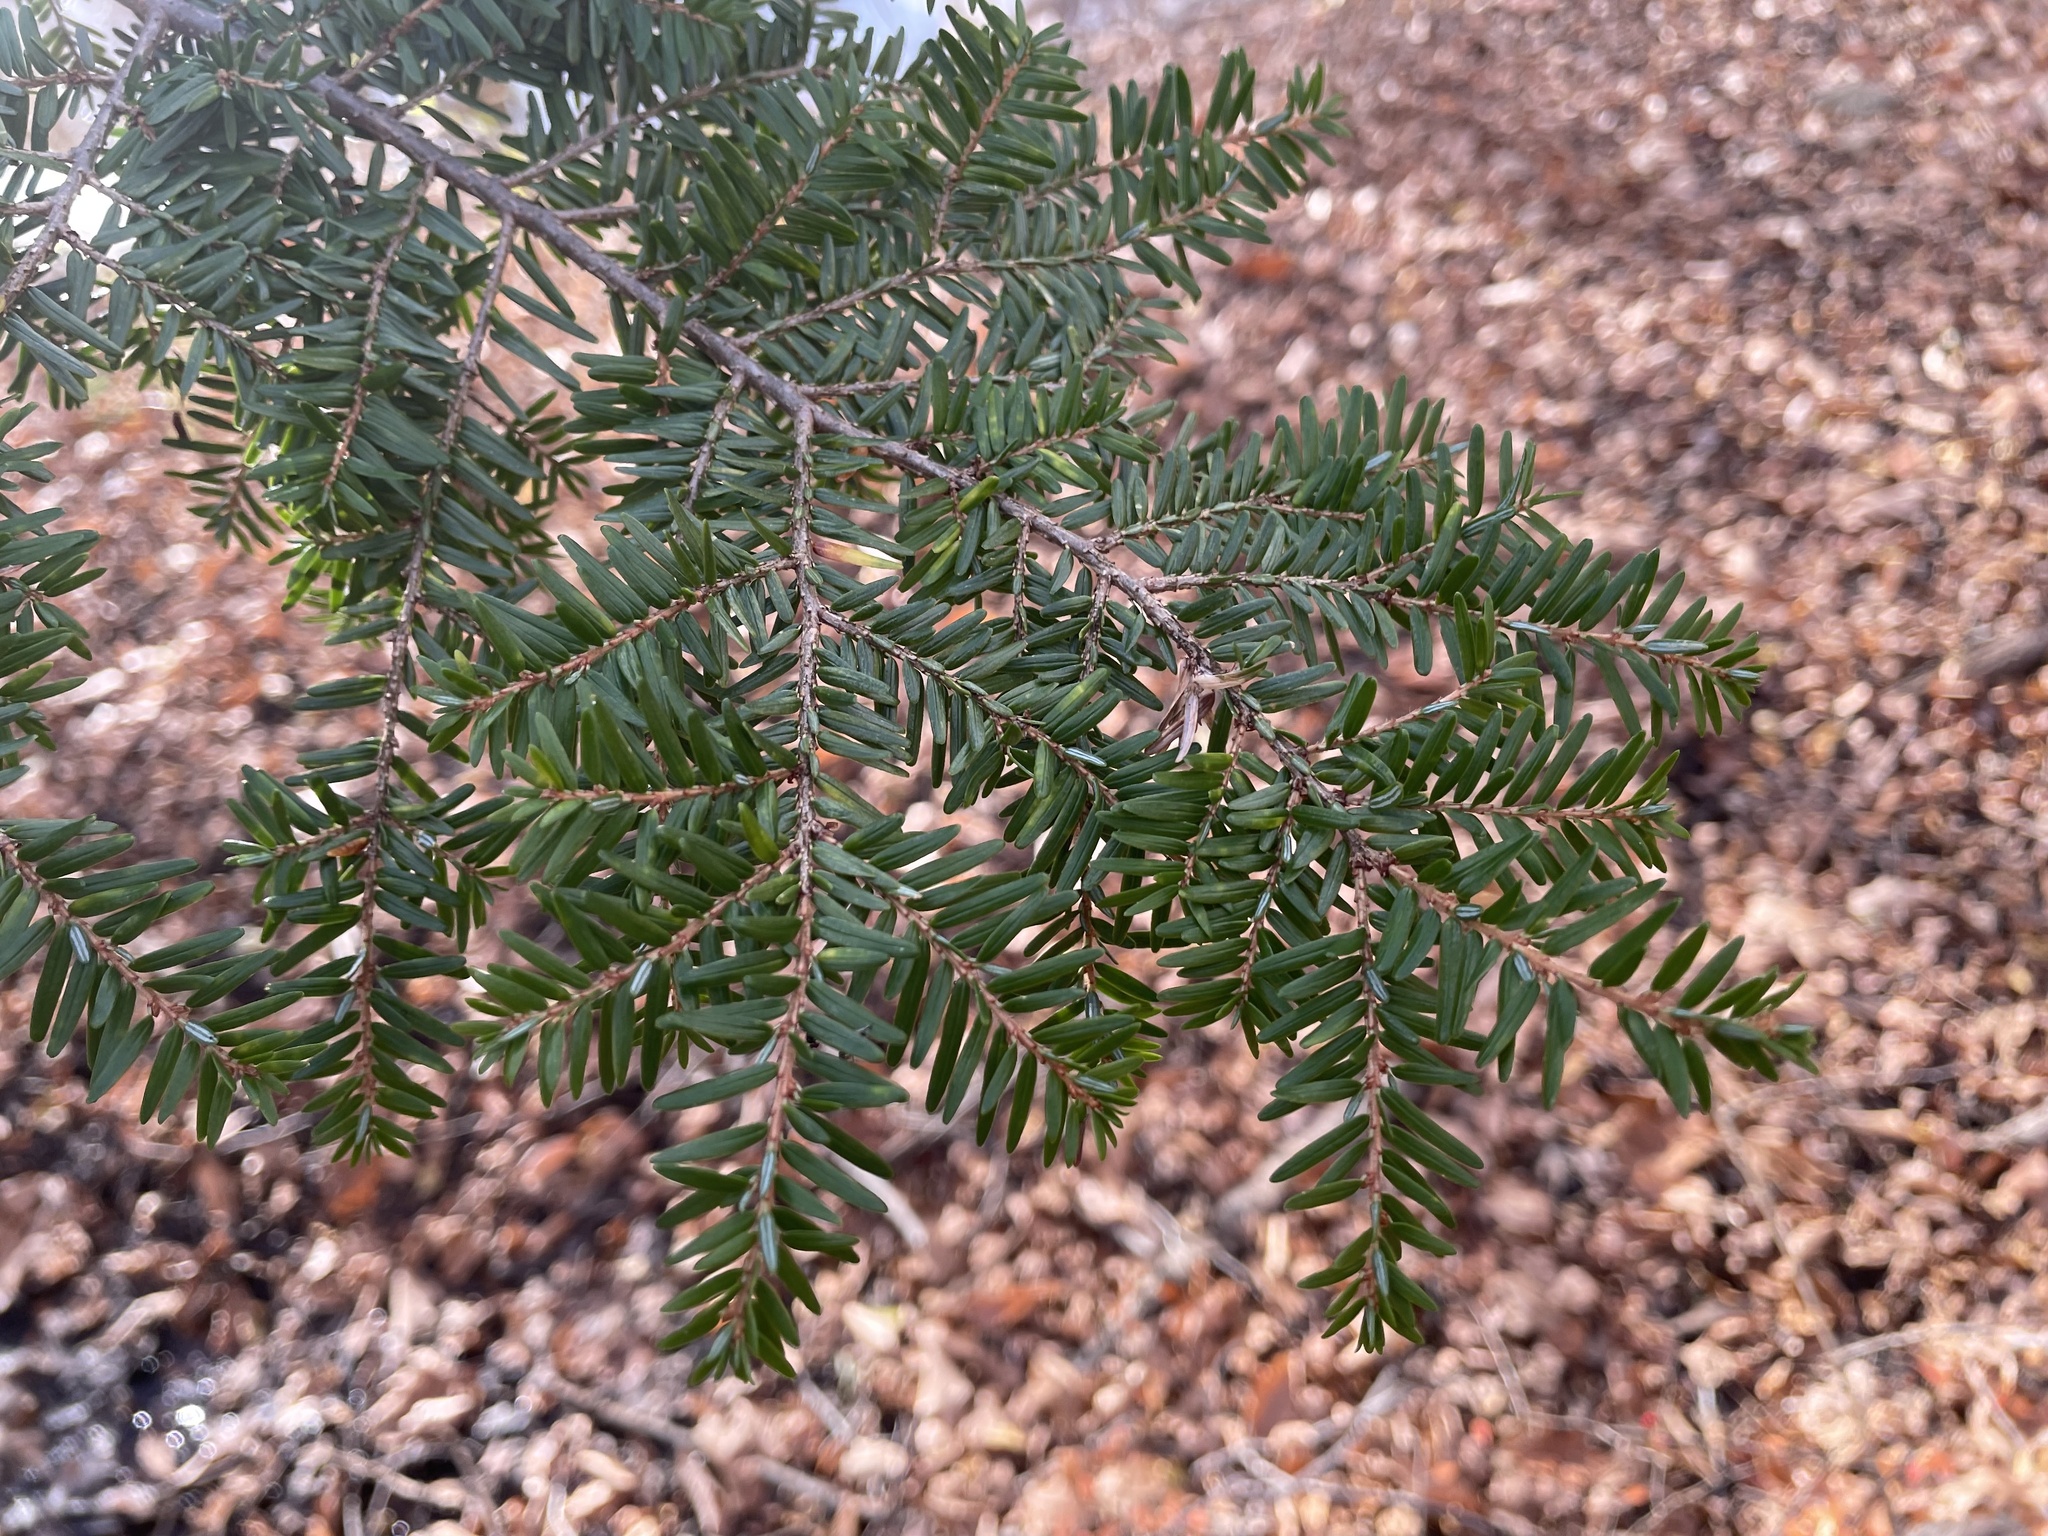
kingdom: Plantae
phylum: Tracheophyta
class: Pinopsida
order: Pinales
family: Pinaceae
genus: Tsuga
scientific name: Tsuga canadensis
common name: Eastern hemlock
